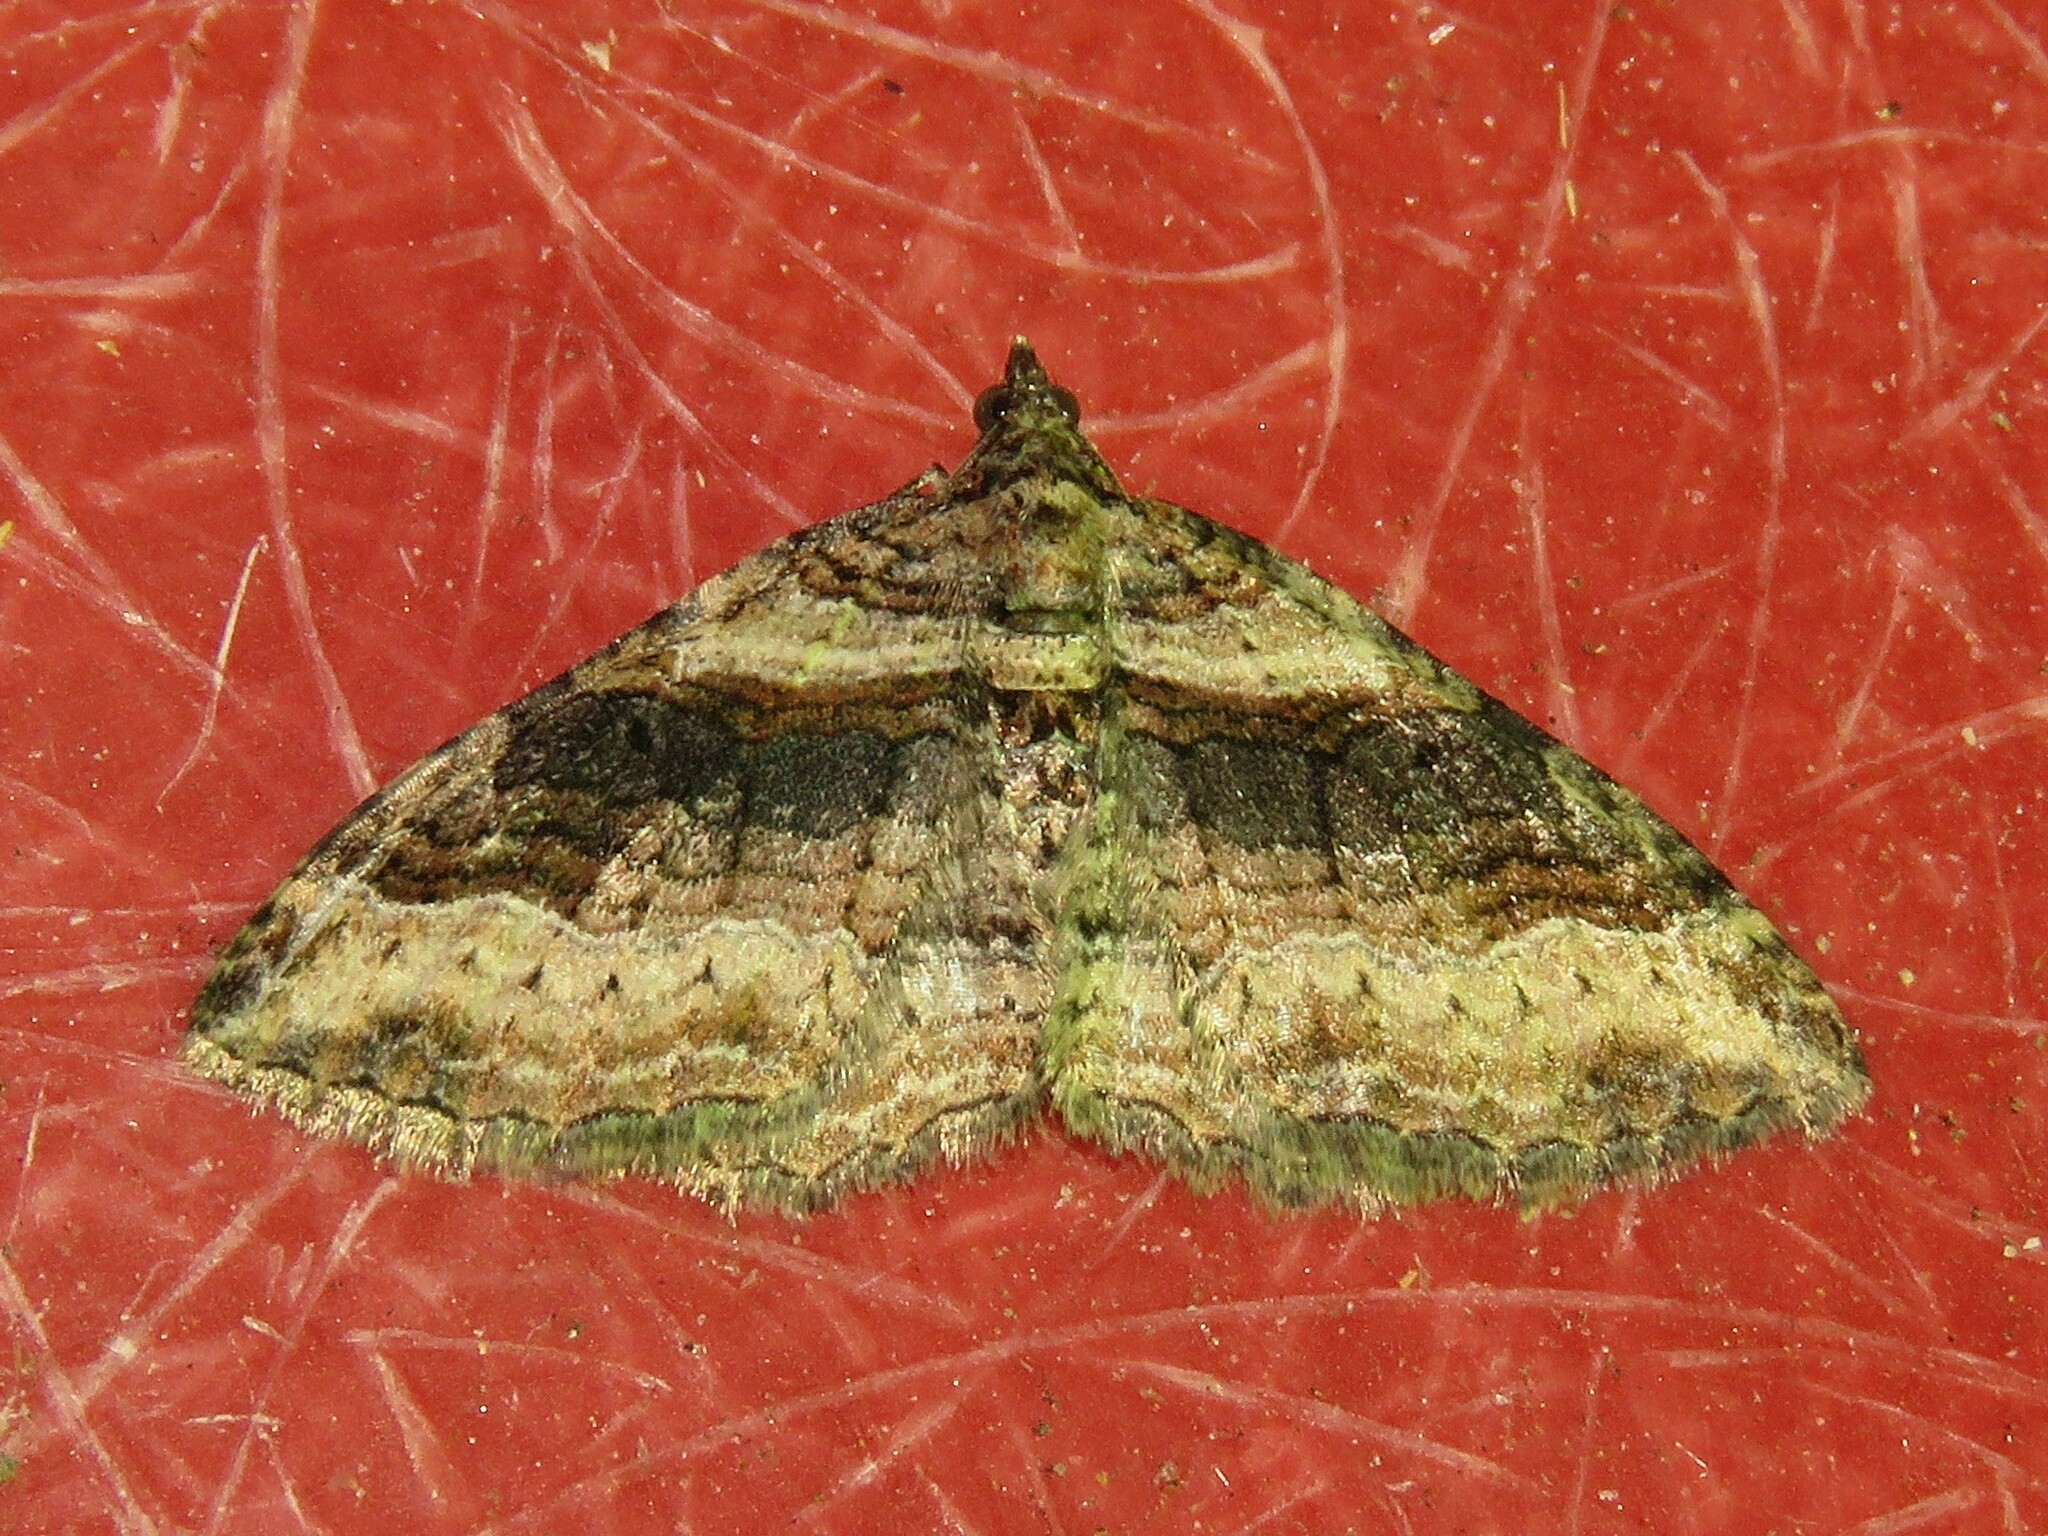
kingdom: Animalia
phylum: Arthropoda
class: Insecta
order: Lepidoptera
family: Geometridae
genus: Costaconvexa
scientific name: Costaconvexa centrostrigaria
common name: Bent-line carpet
